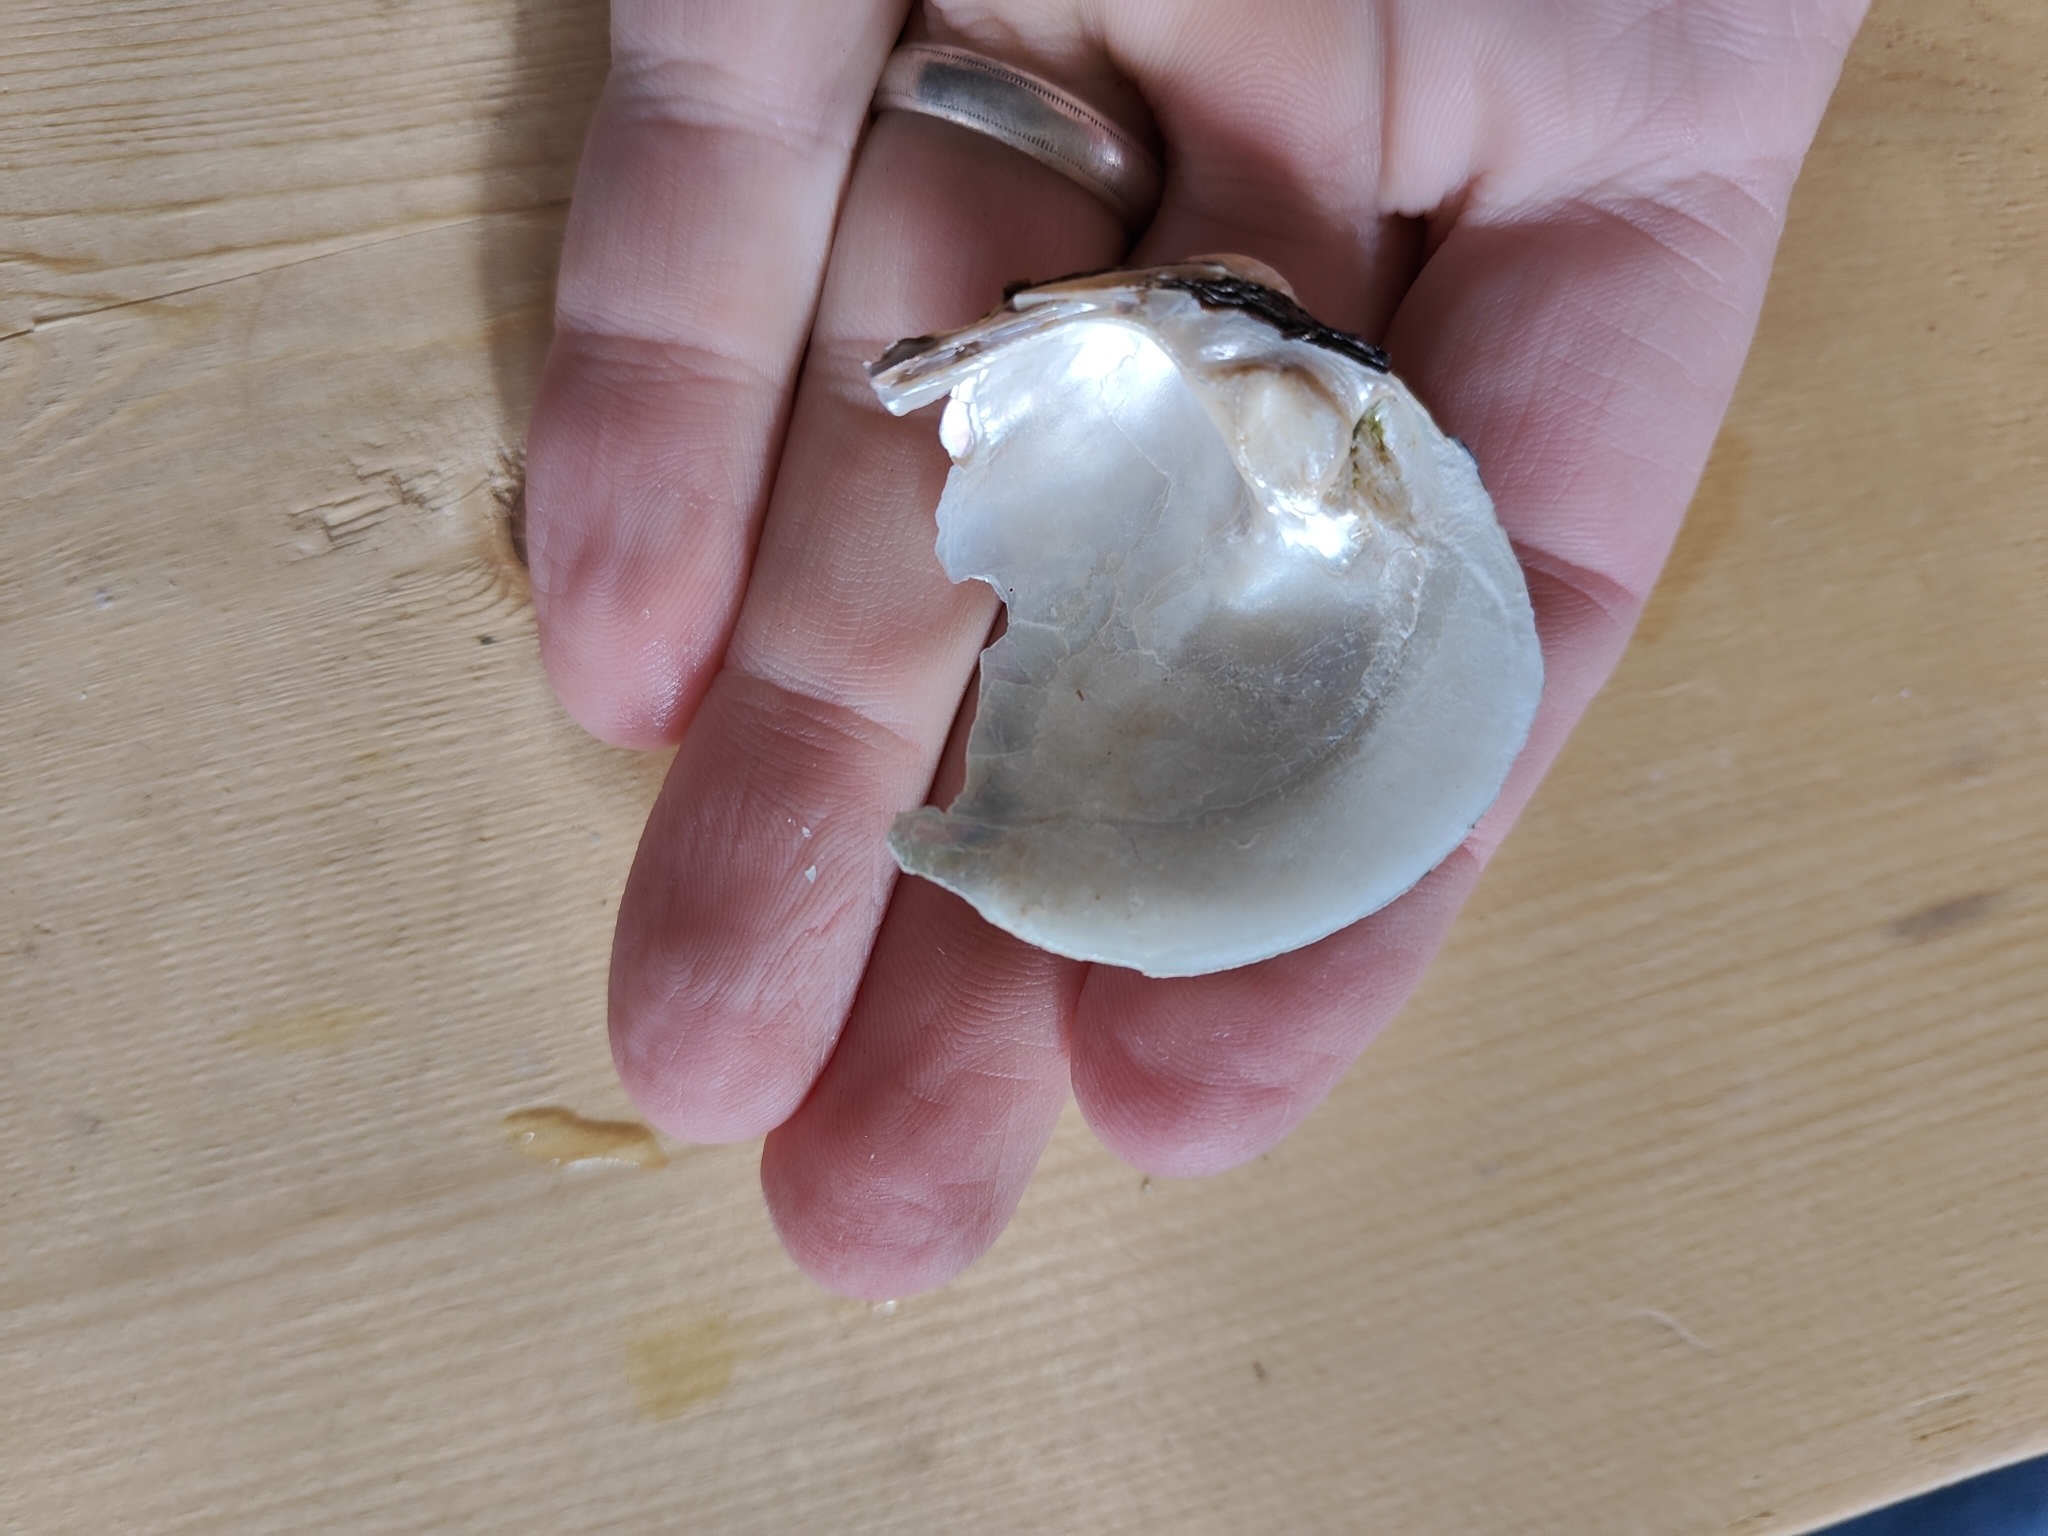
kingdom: Animalia
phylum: Mollusca
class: Bivalvia
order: Unionida
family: Unionidae
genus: Cyclonaias
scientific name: Cyclonaias pustulosa
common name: Pimpleback
